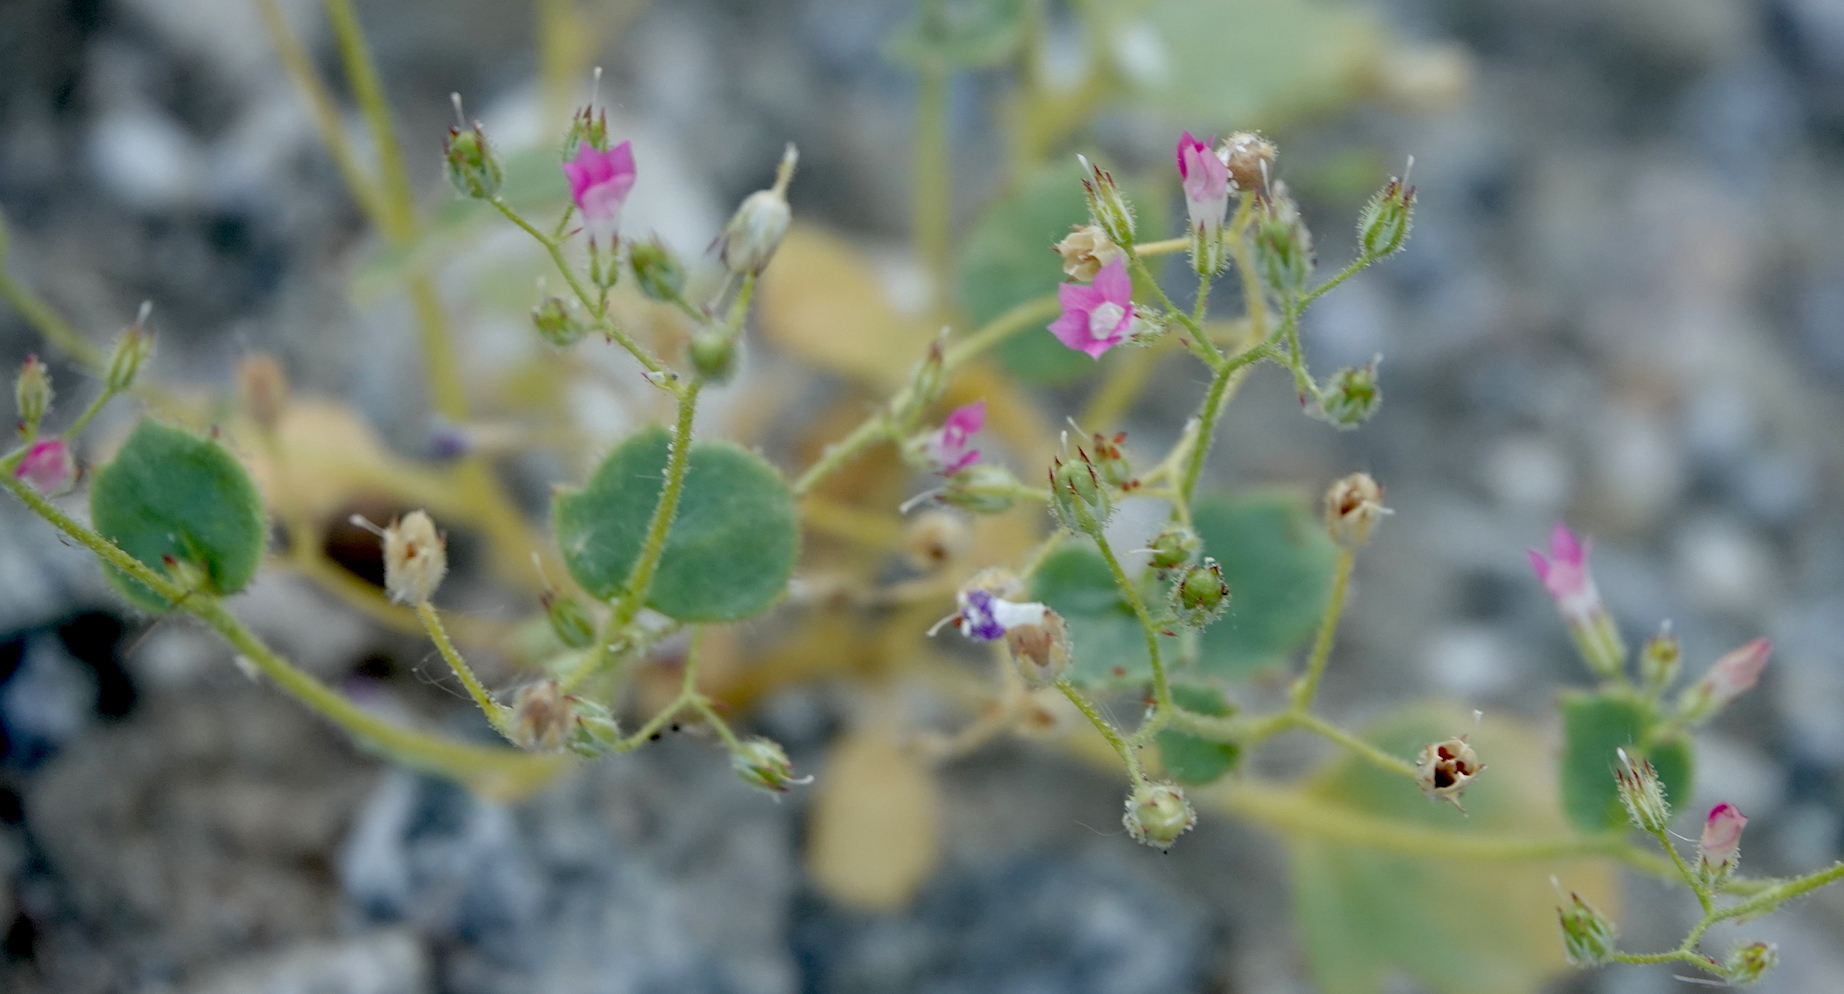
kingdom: Plantae
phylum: Tracheophyta
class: Magnoliopsida
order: Ericales
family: Polemoniaceae
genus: Aliciella
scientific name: Aliciella latifolia
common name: Broad-leaf gilia
